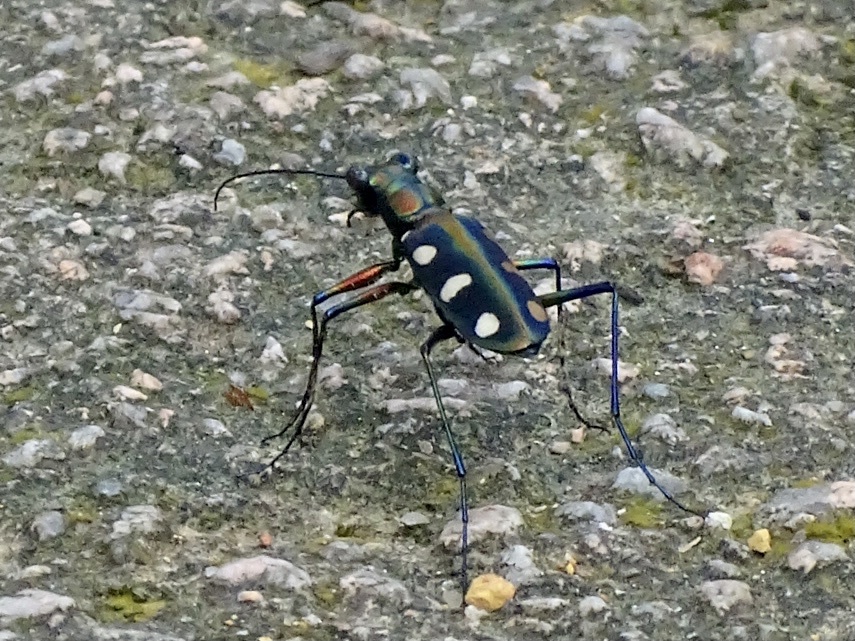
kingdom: Animalia
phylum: Arthropoda
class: Insecta
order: Coleoptera
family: Carabidae
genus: Cicindela
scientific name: Cicindela juxtata
